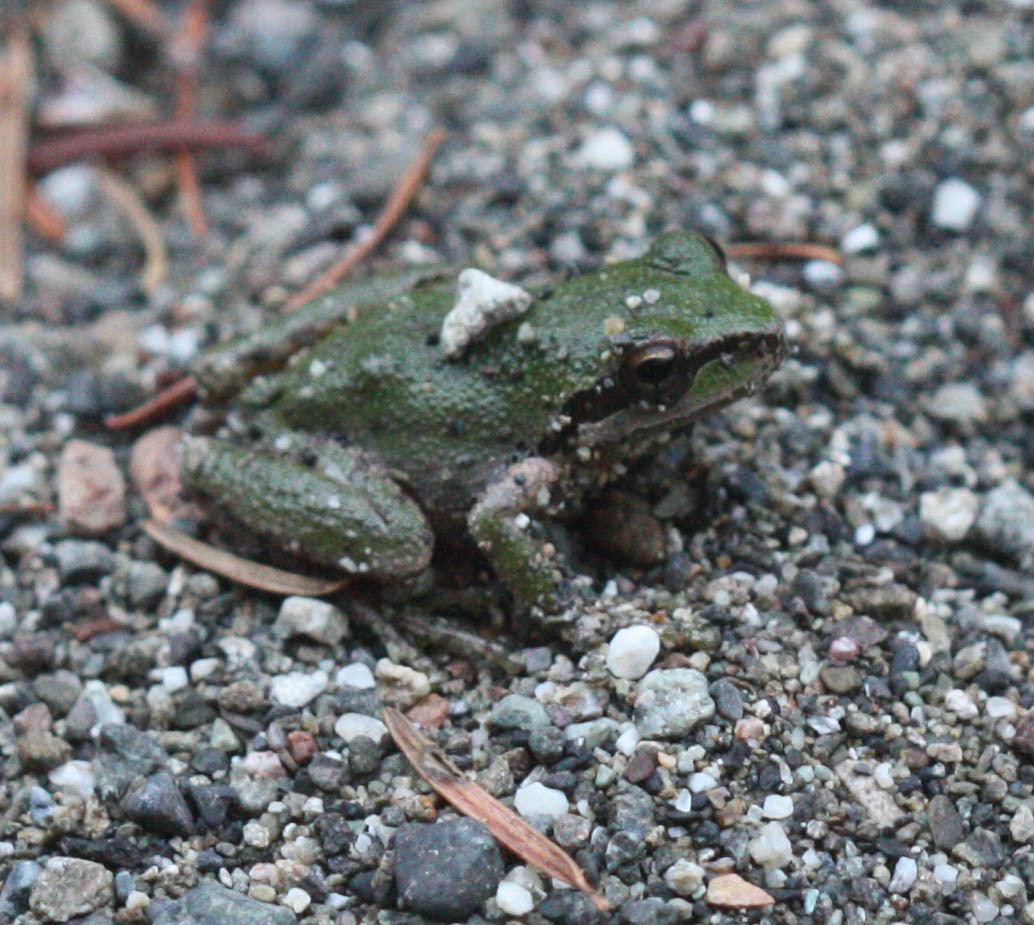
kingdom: Animalia
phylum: Chordata
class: Amphibia
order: Anura
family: Hylidae
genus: Pseudacris
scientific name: Pseudacris regilla
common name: Pacific chorus frog
